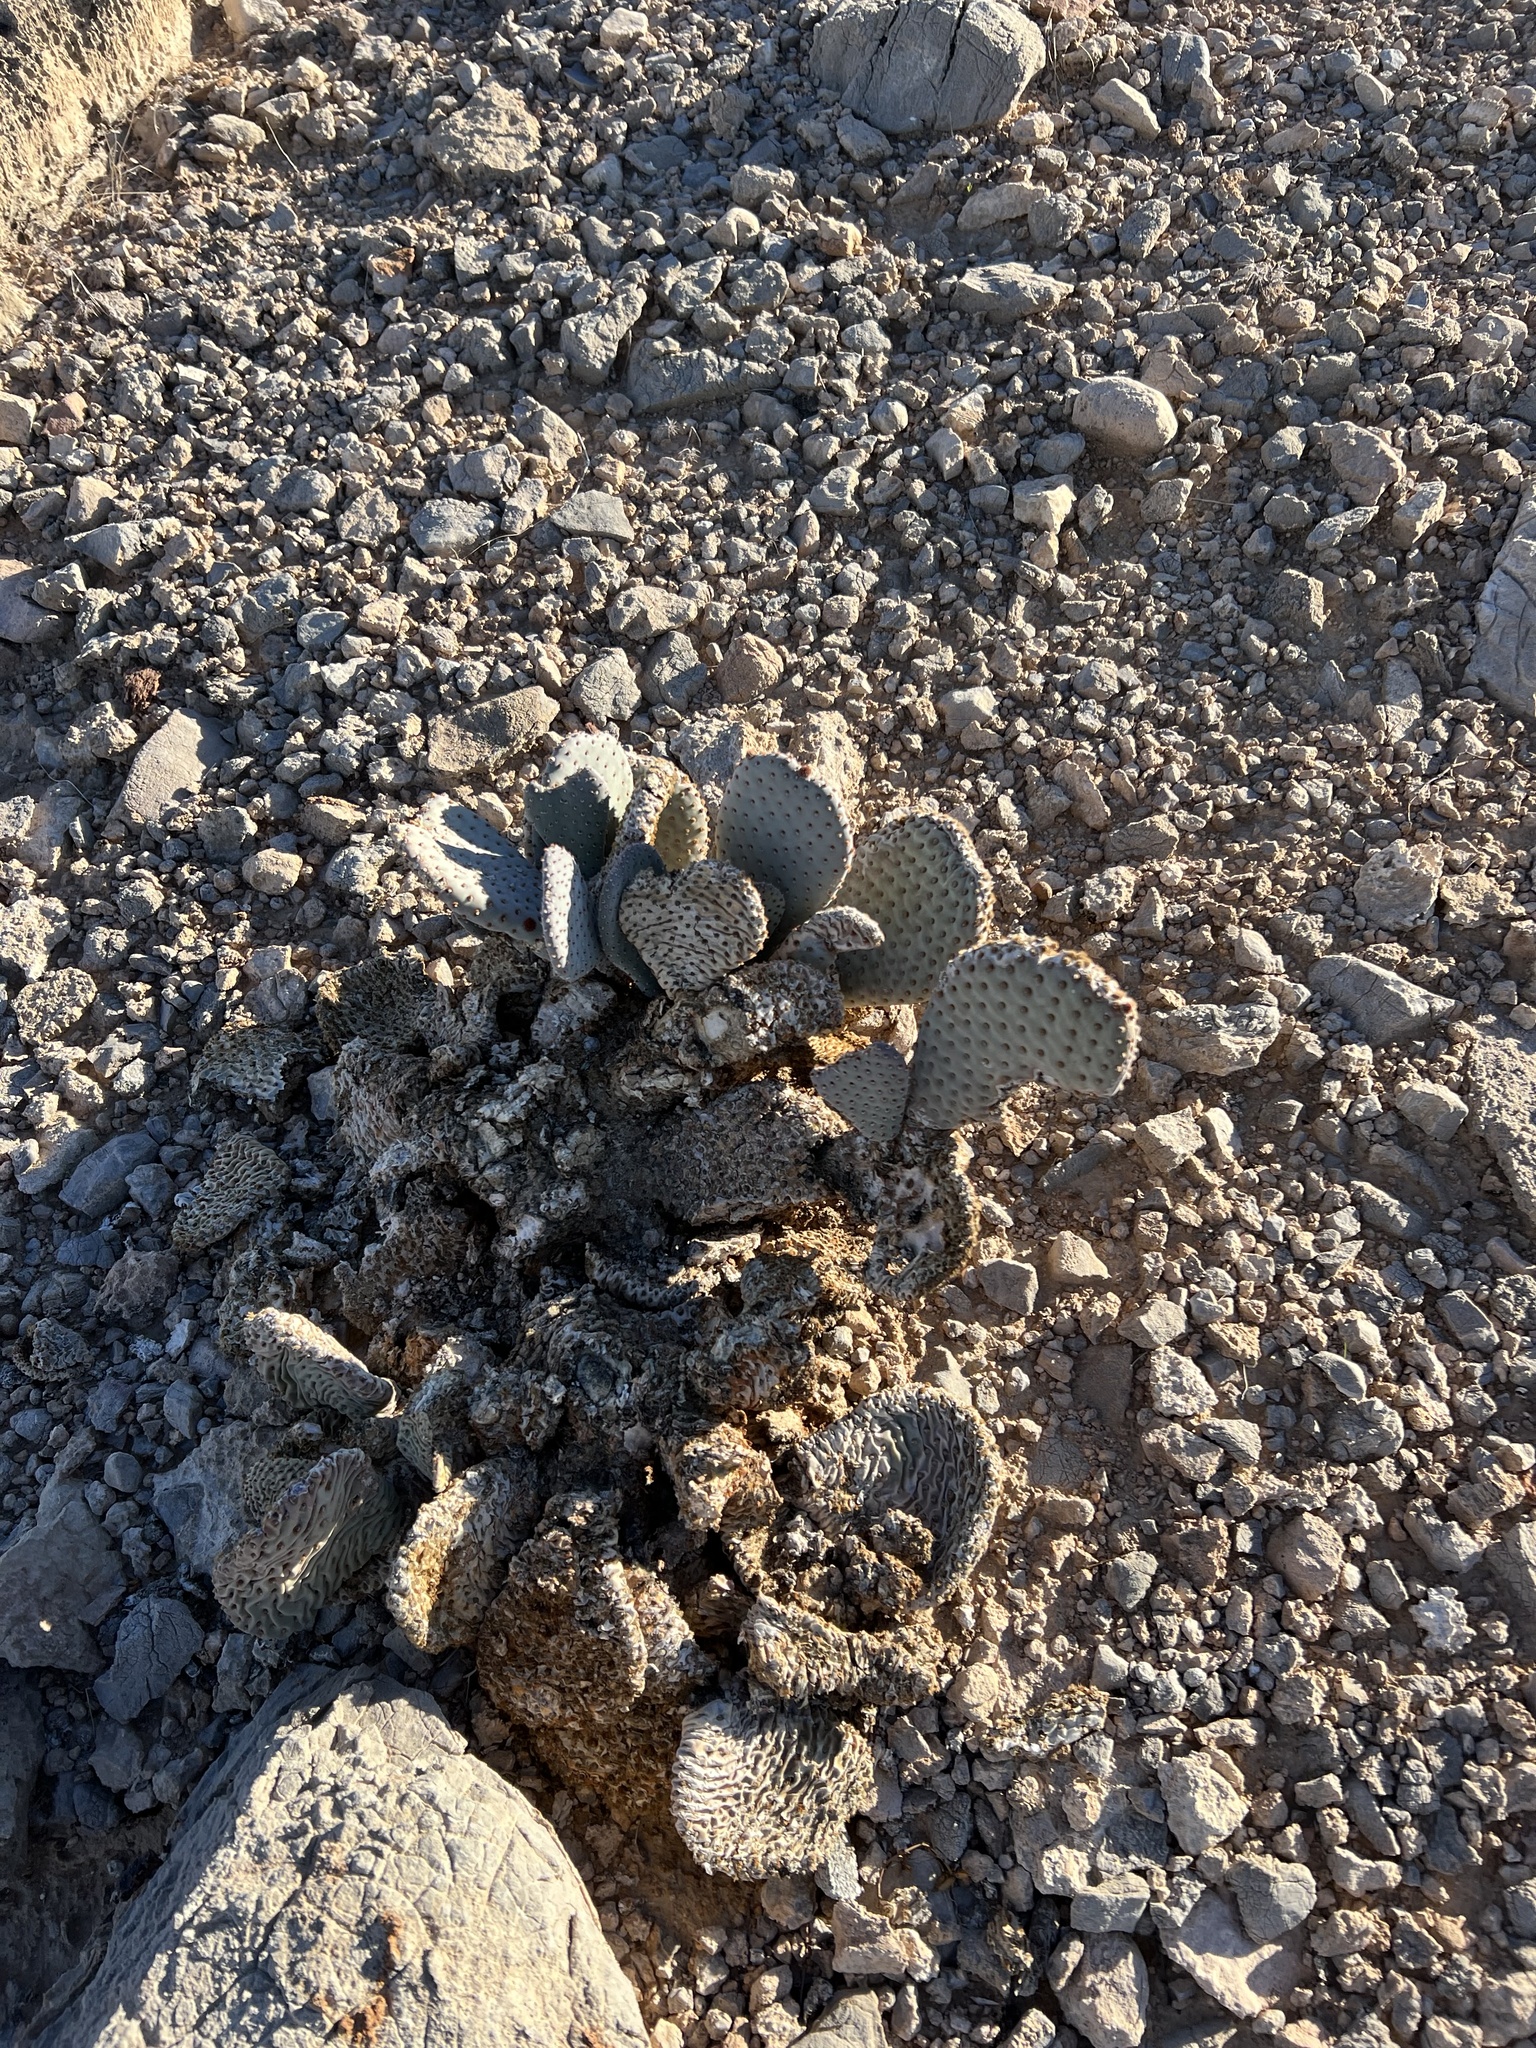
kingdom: Plantae
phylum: Tracheophyta
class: Magnoliopsida
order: Caryophyllales
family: Cactaceae
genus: Opuntia
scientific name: Opuntia basilaris
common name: Beavertail prickly-pear
